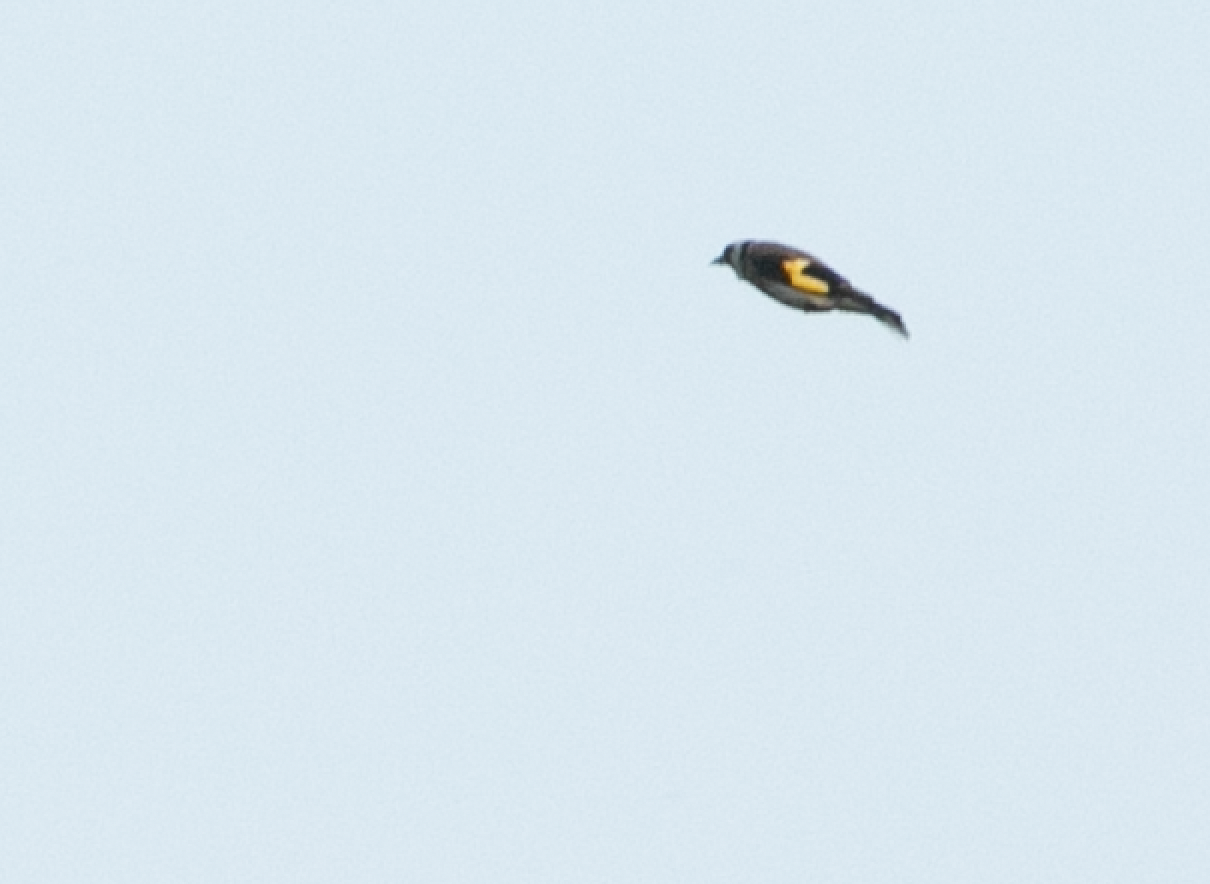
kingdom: Animalia
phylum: Chordata
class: Aves
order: Passeriformes
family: Fringillidae
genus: Carduelis
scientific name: Carduelis carduelis
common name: European goldfinch
